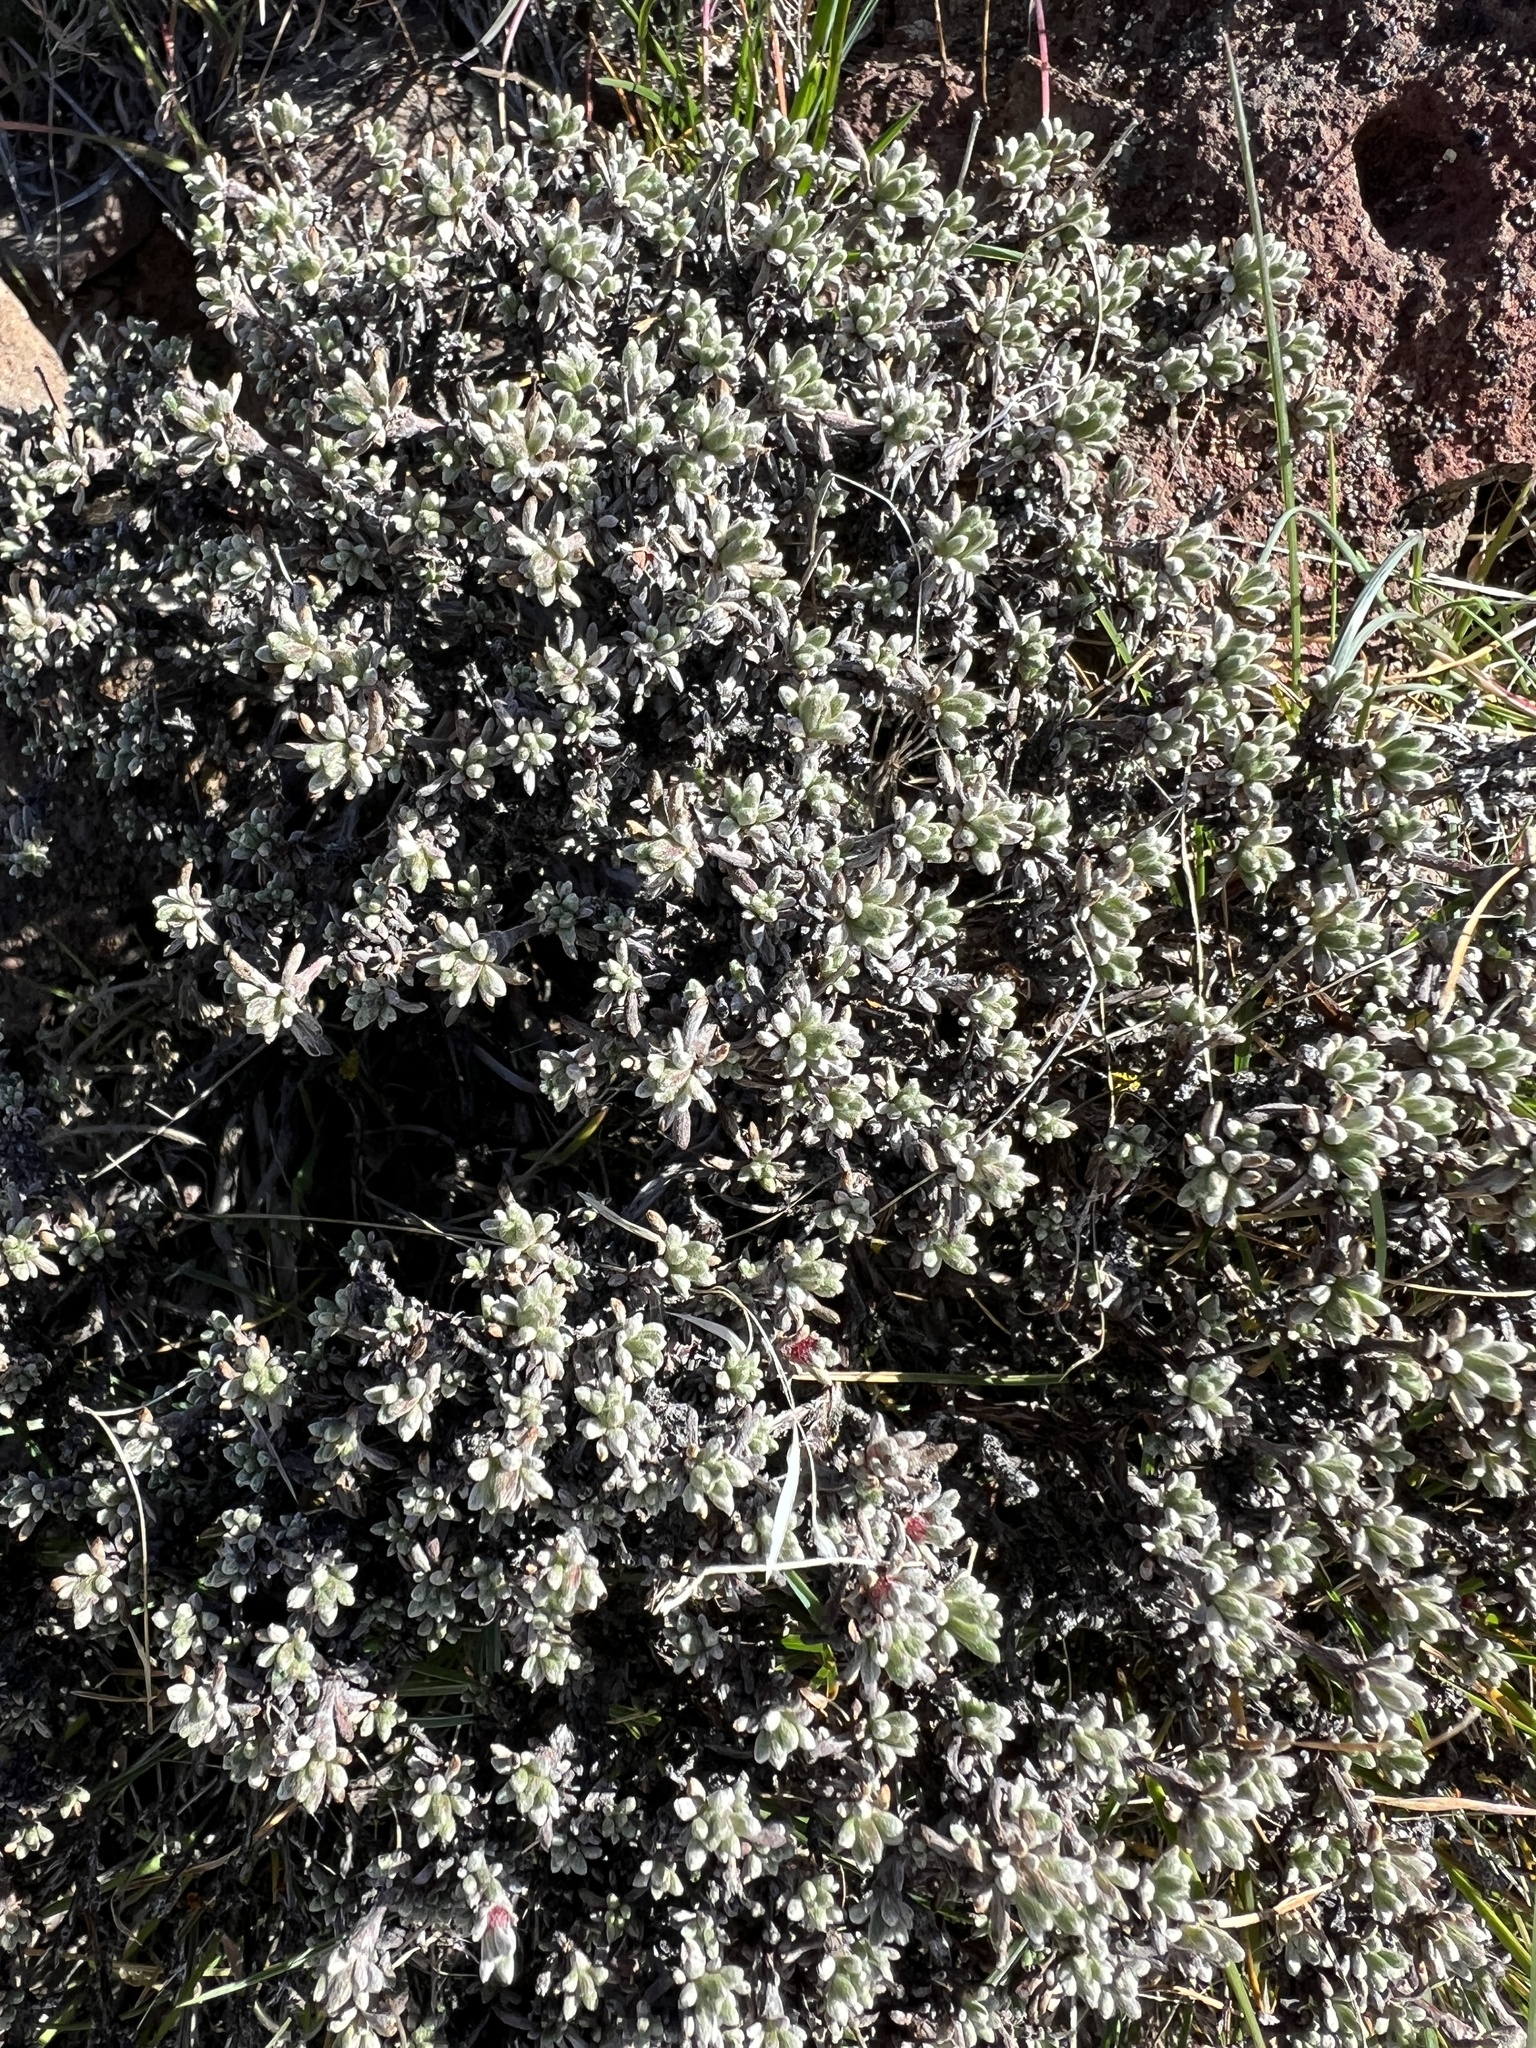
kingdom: Plantae
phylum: Tracheophyta
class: Magnoliopsida
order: Caryophyllales
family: Polygonaceae
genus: Eriogonum
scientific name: Eriogonum thymoides
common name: Thyme-leaf wild buckwheat
